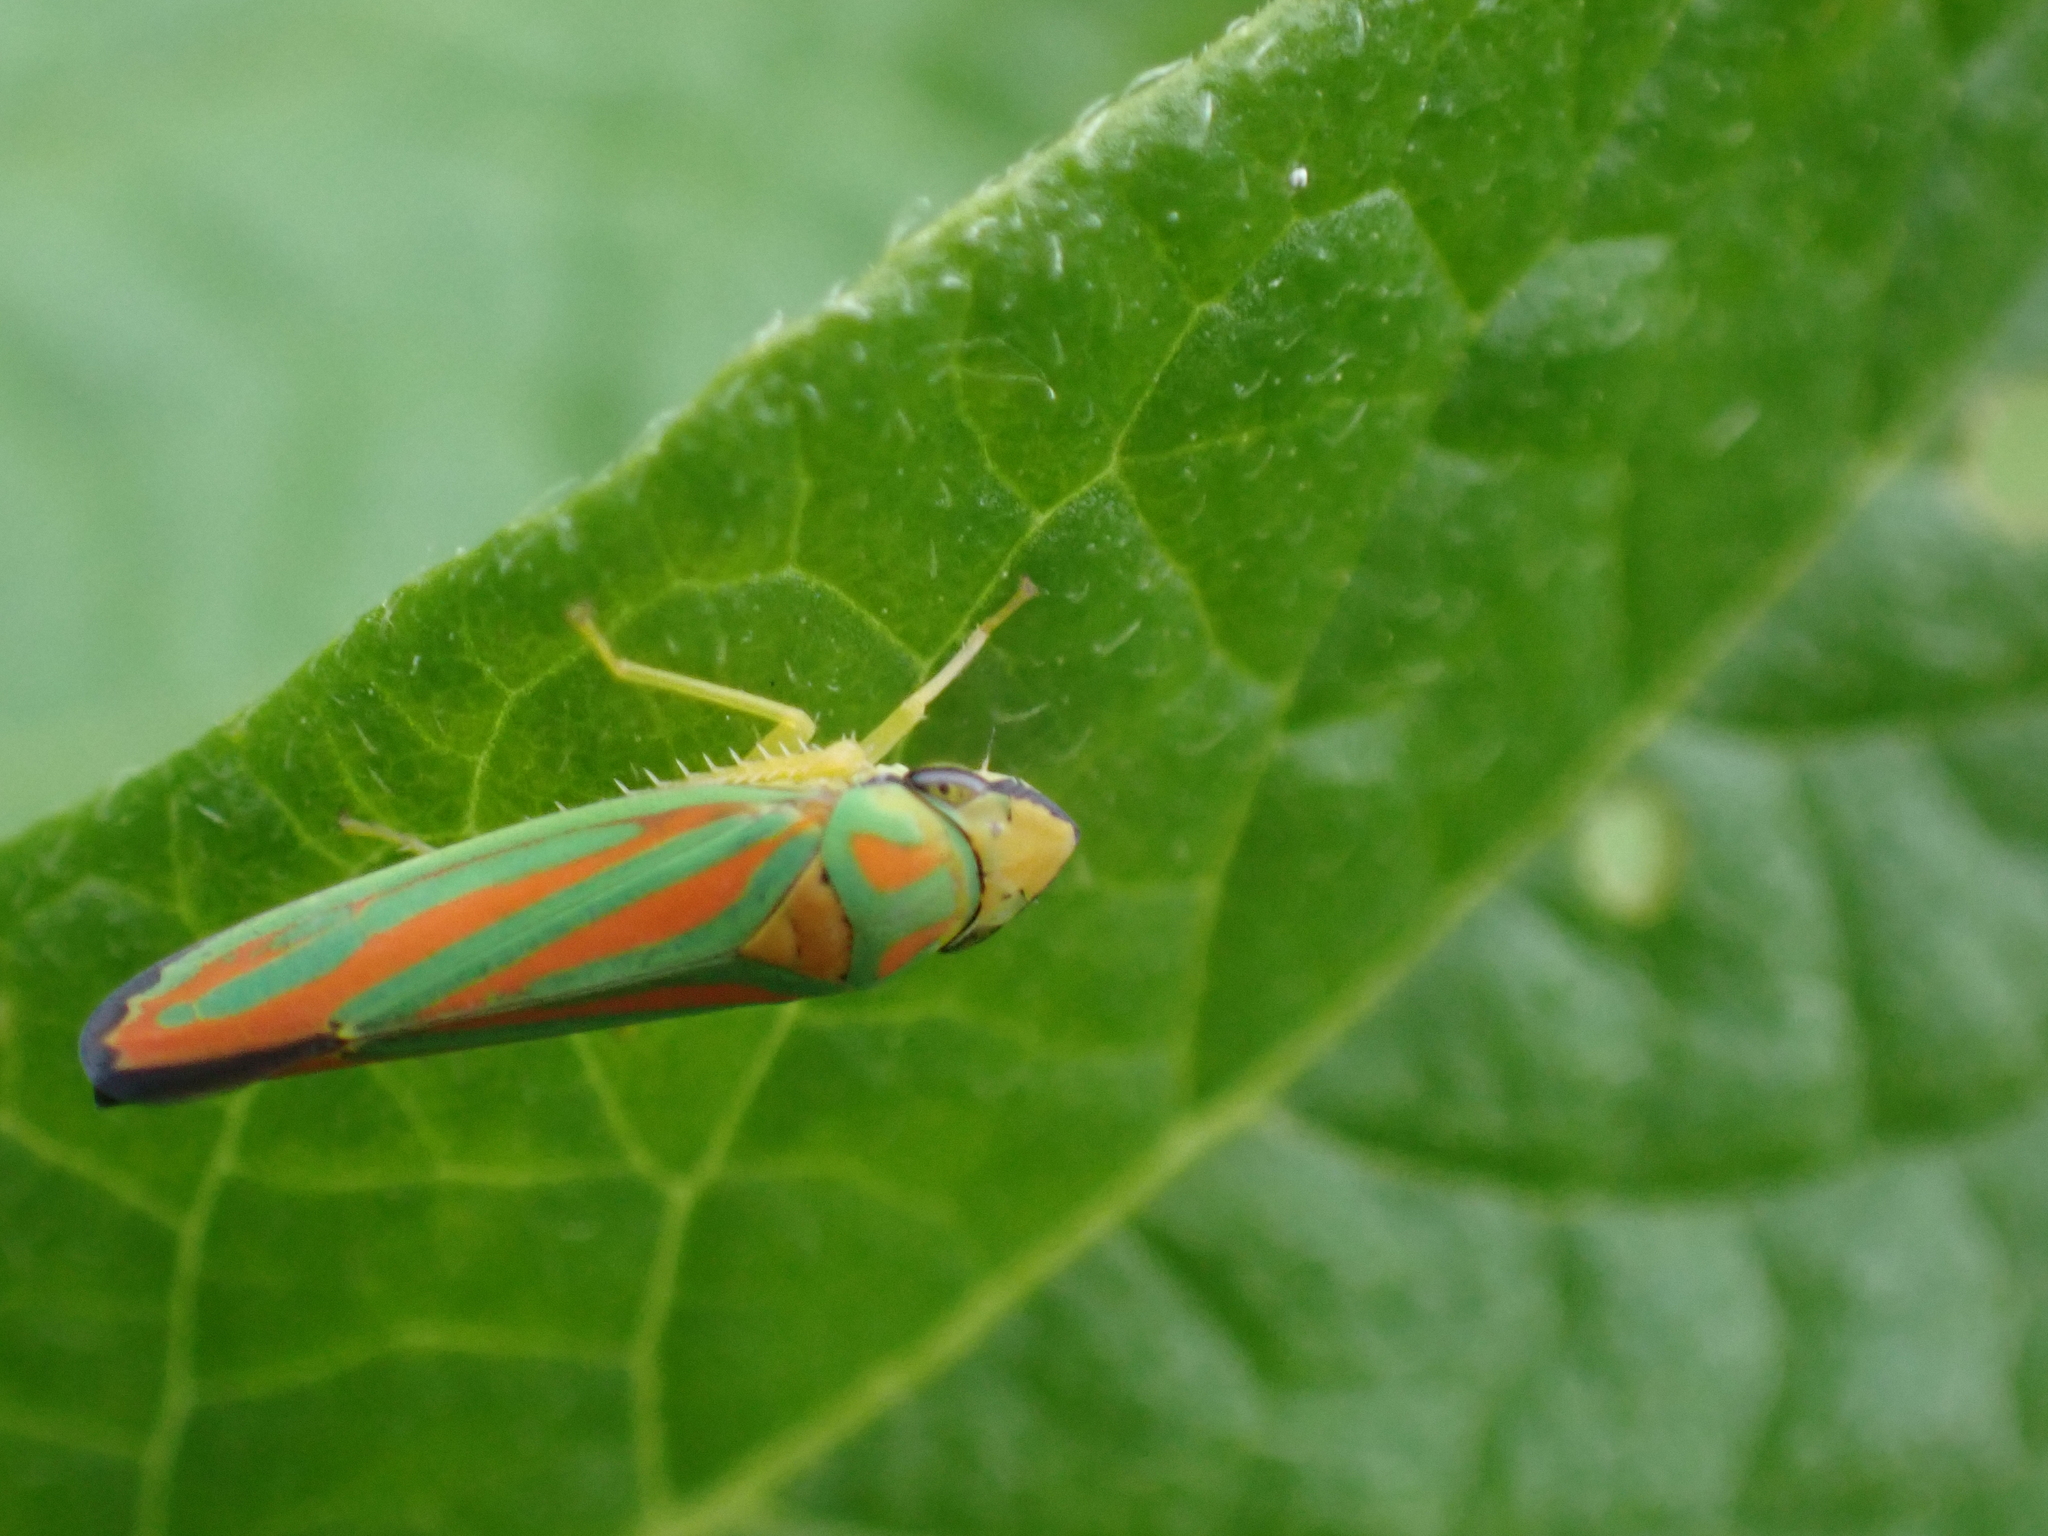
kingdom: Animalia
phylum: Arthropoda
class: Insecta
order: Hemiptera
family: Cicadellidae
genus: Graphocephala
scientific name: Graphocephala coccinea
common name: Candy-striped leafhopper
